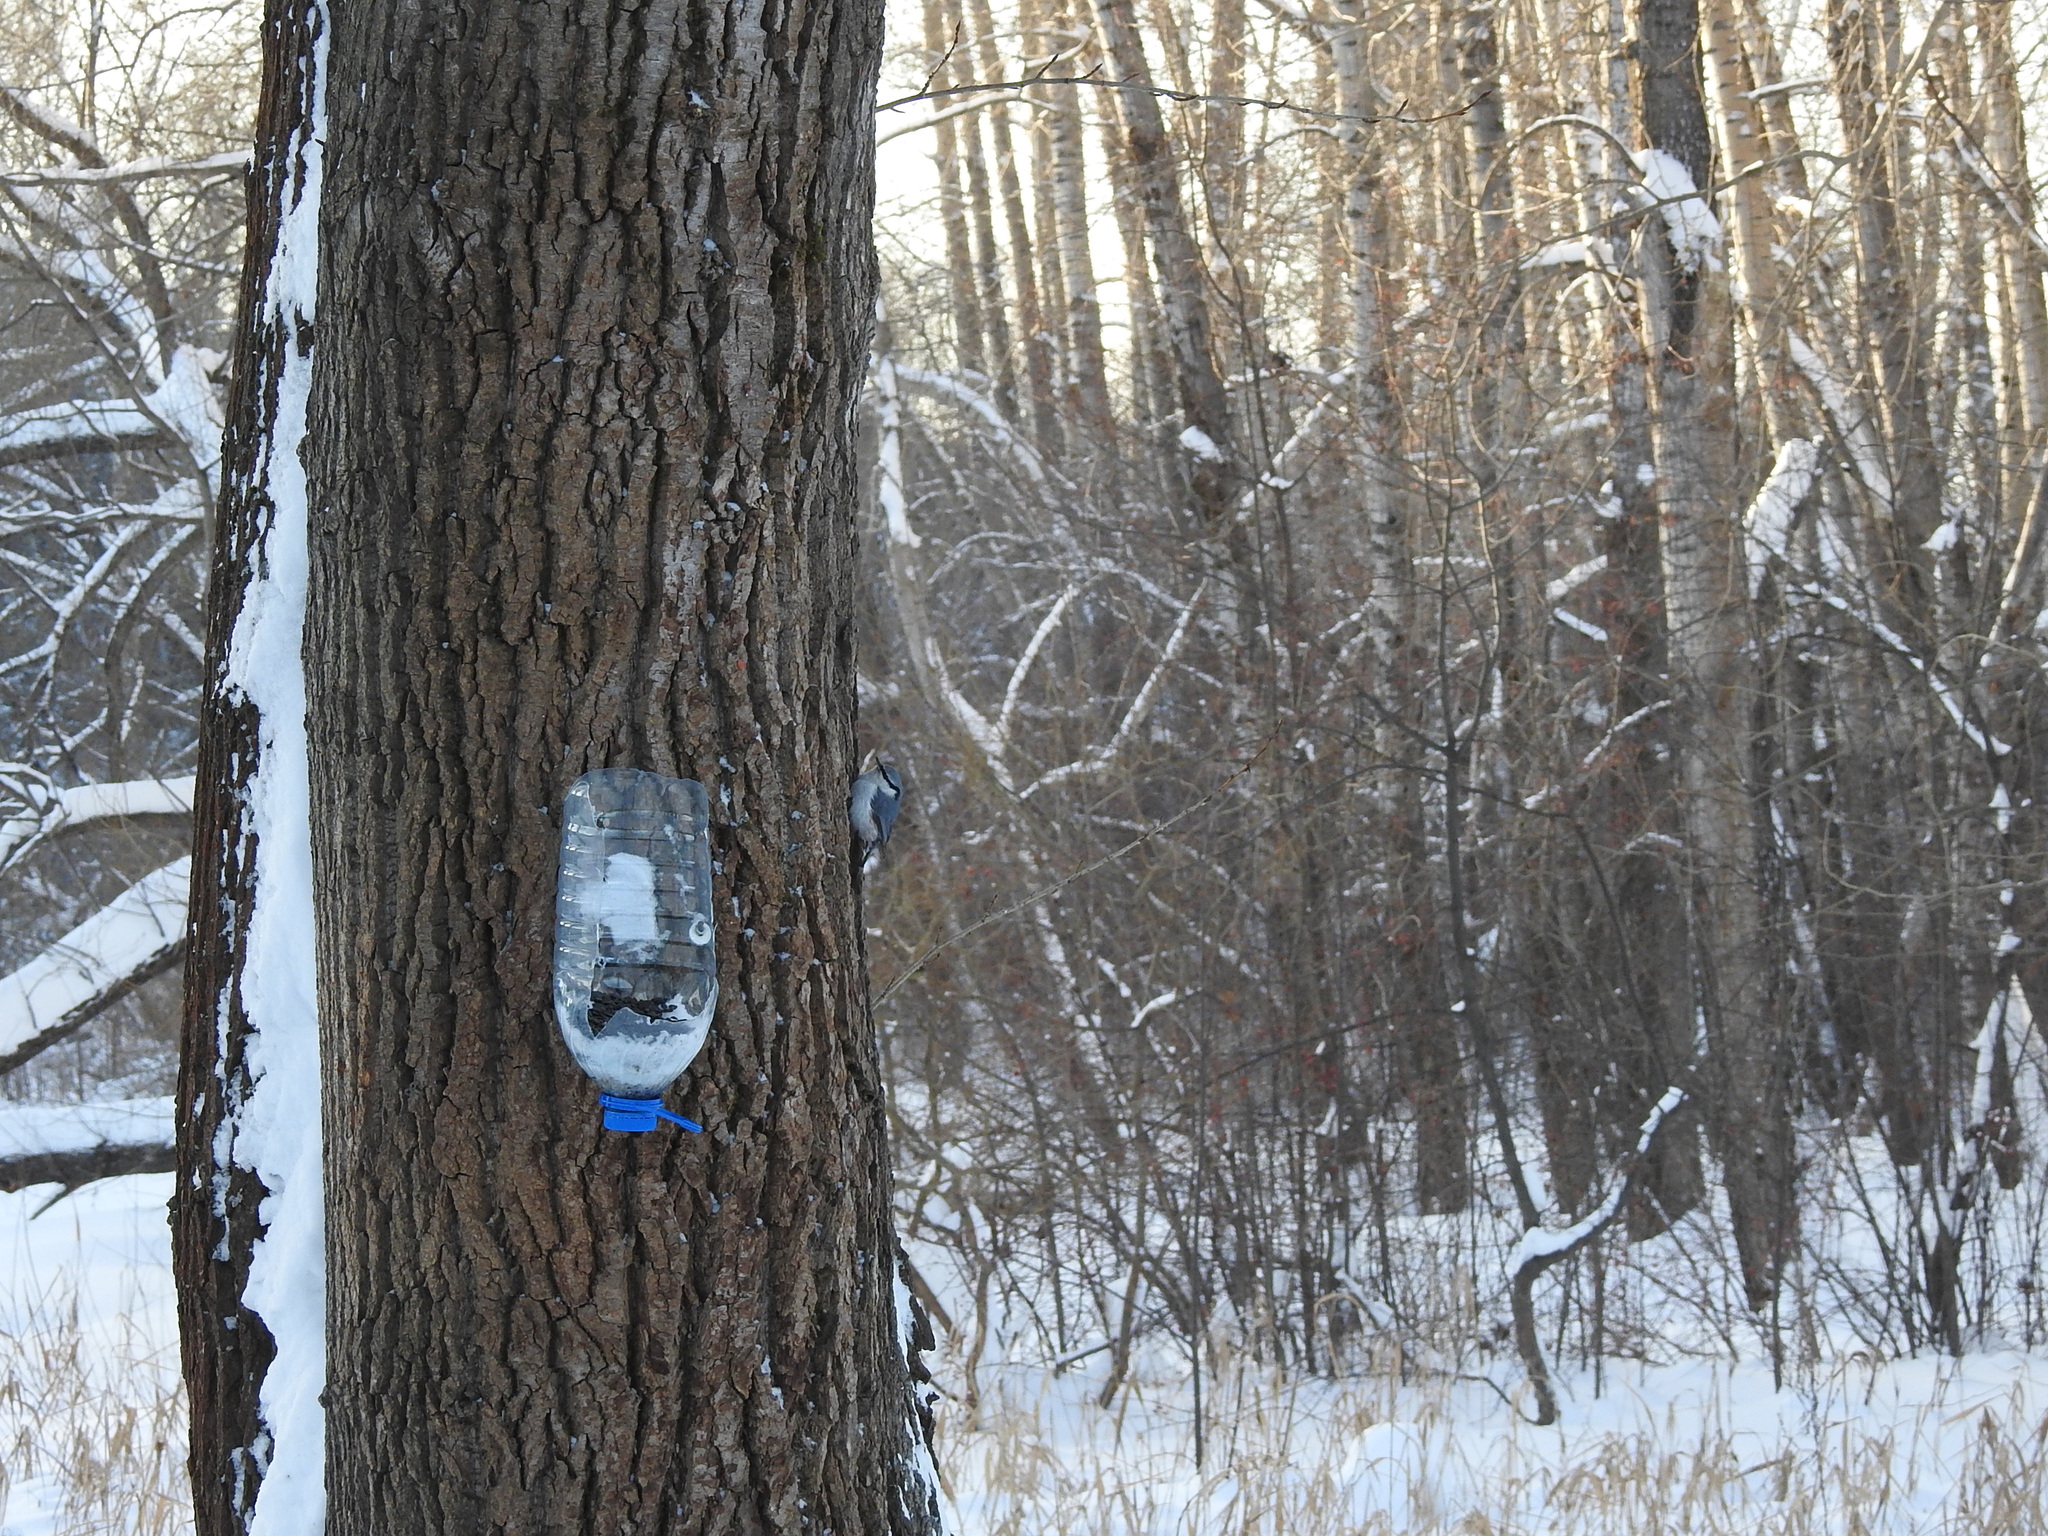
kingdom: Animalia
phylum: Chordata
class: Aves
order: Passeriformes
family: Sittidae
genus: Sitta
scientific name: Sitta europaea
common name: Eurasian nuthatch
